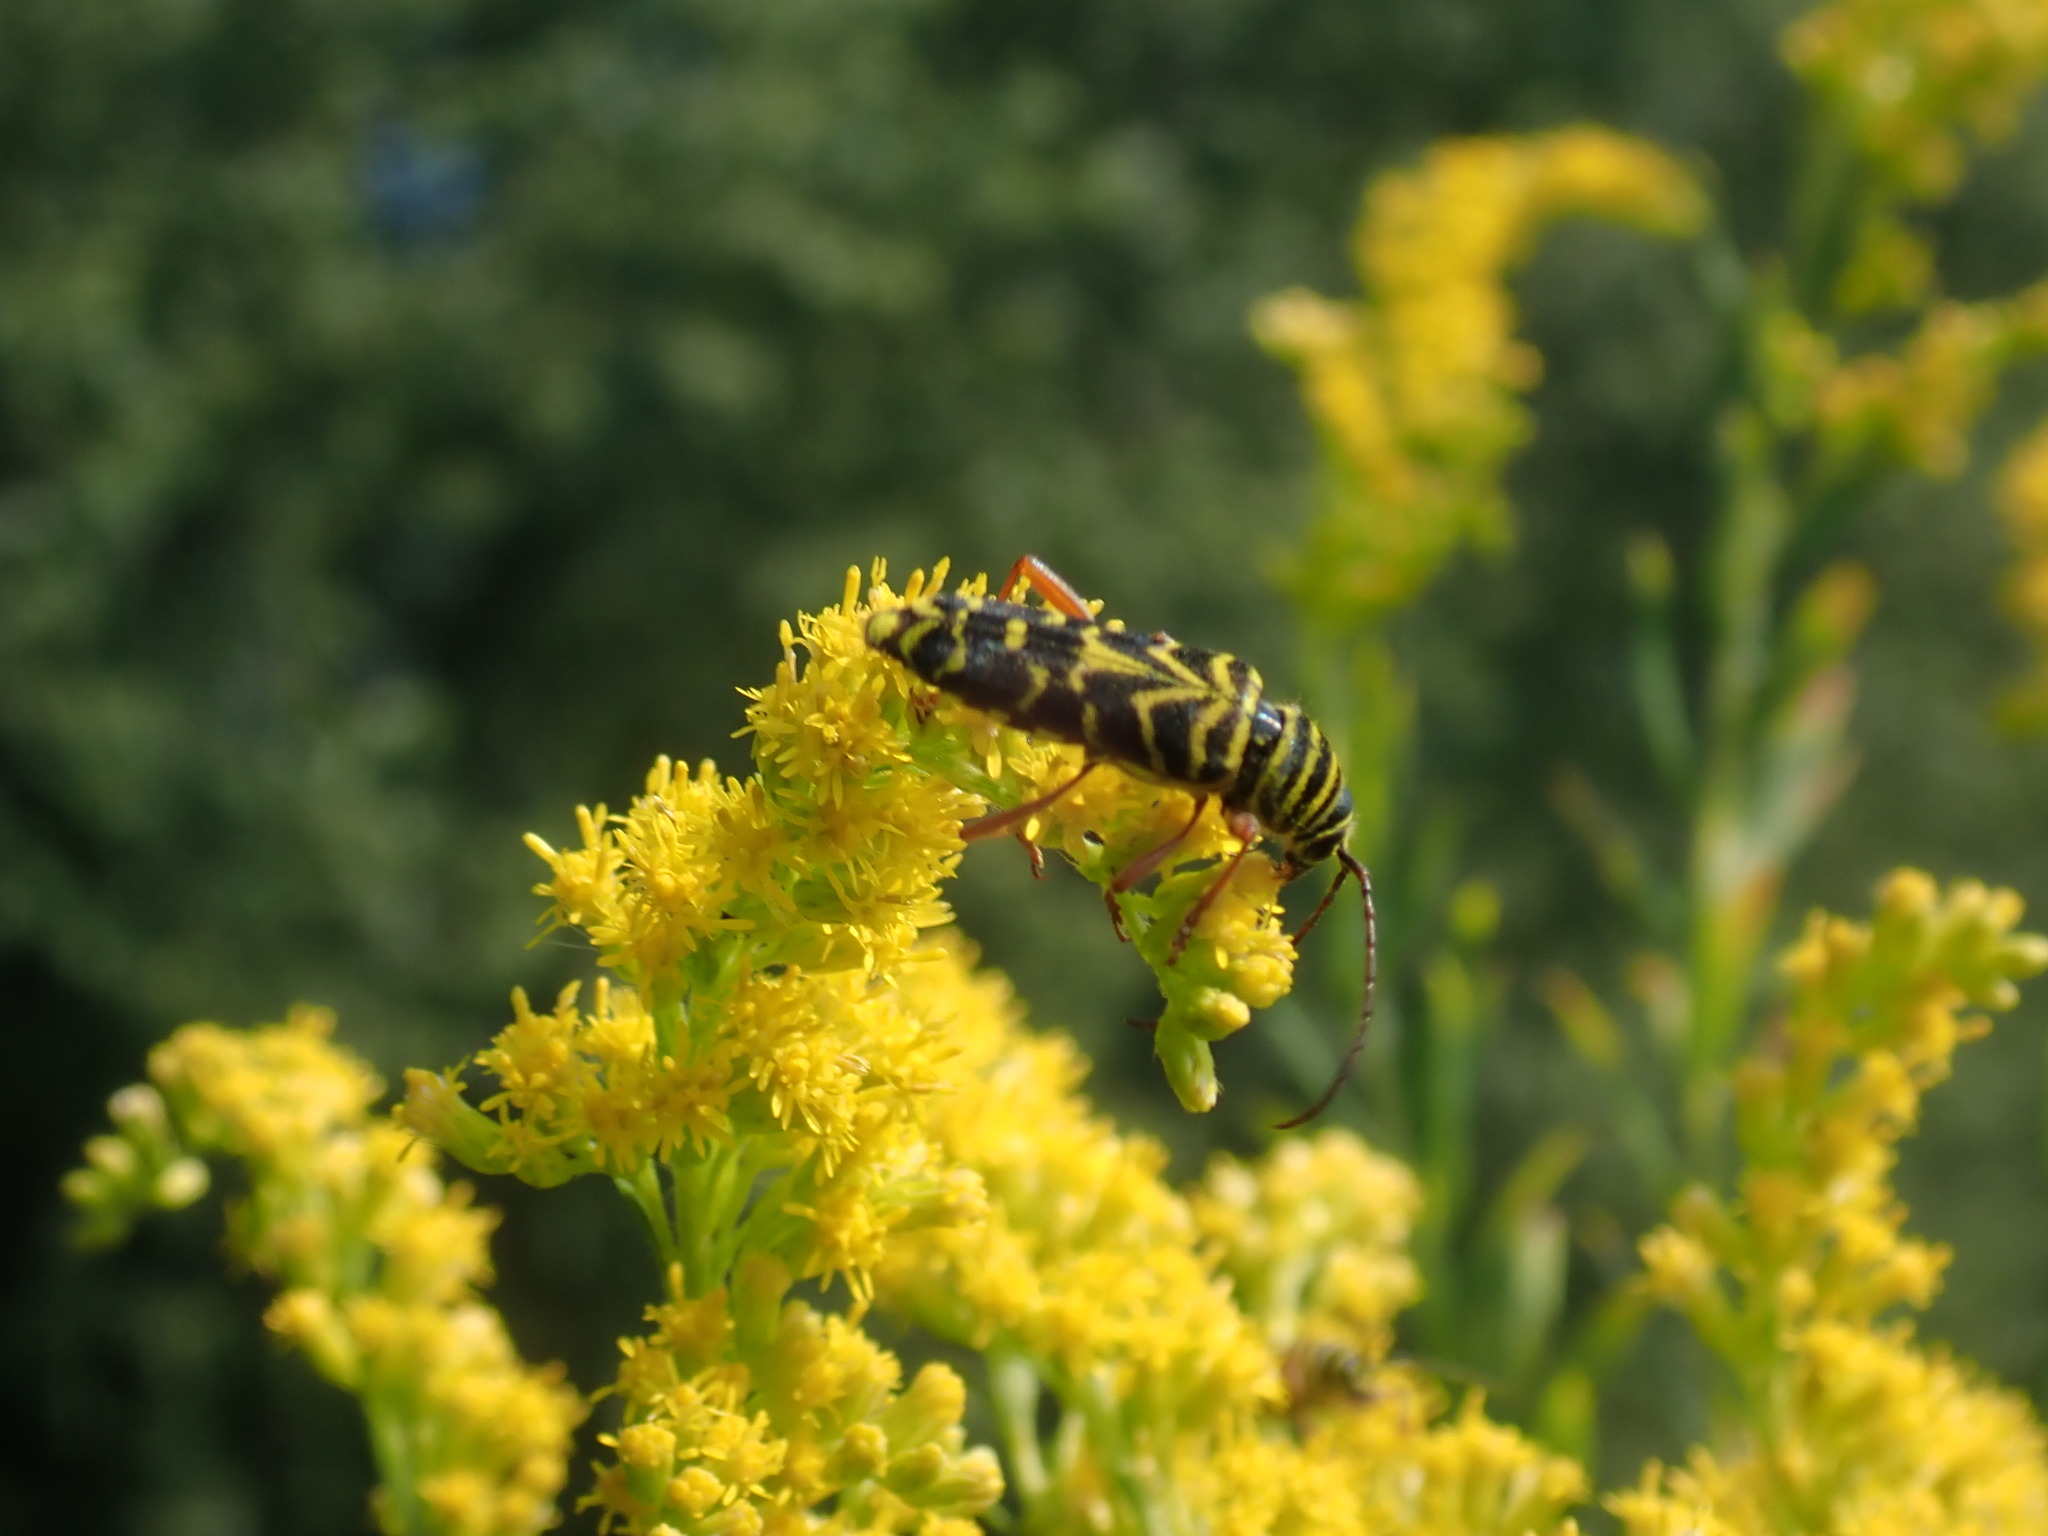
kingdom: Animalia
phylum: Arthropoda
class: Insecta
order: Coleoptera
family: Cerambycidae
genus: Megacyllene
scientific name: Megacyllene robiniae
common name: Locust borer
